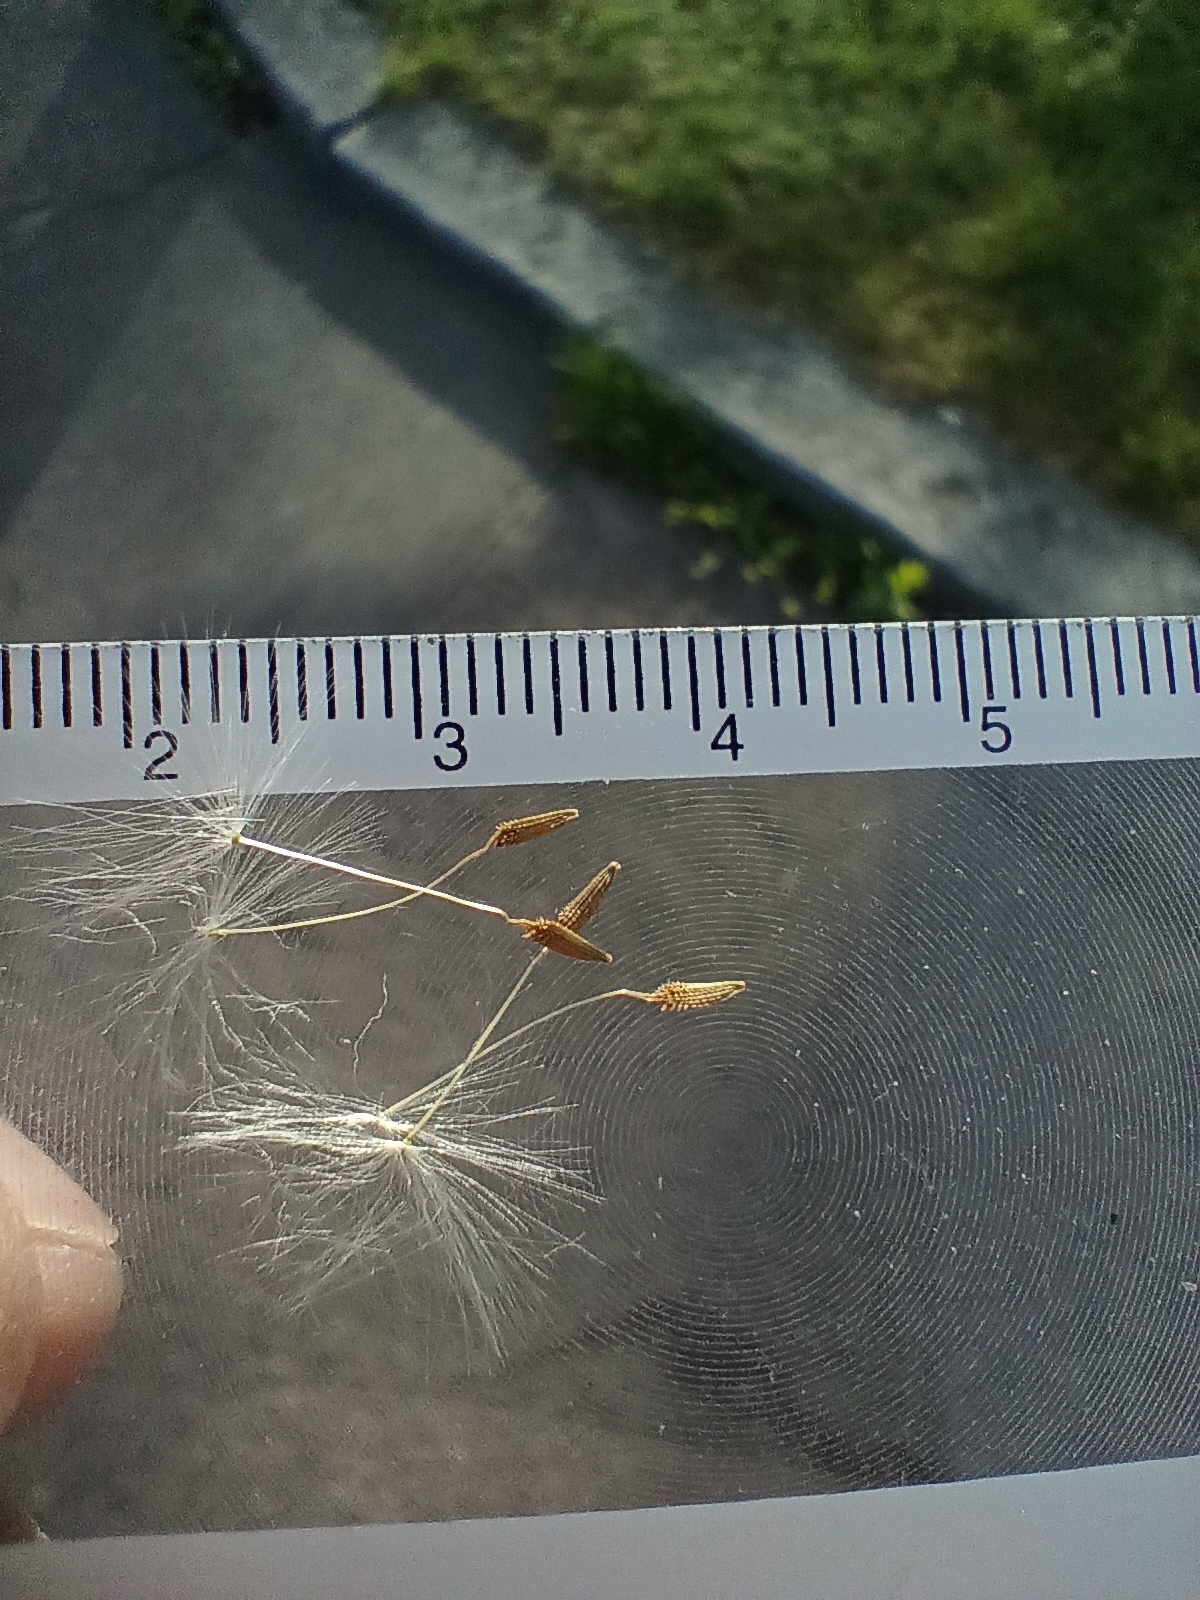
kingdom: Plantae
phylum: Tracheophyta
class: Magnoliopsida
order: Asterales
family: Asteraceae
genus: Taraxacum
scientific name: Taraxacum lacistophylloides
